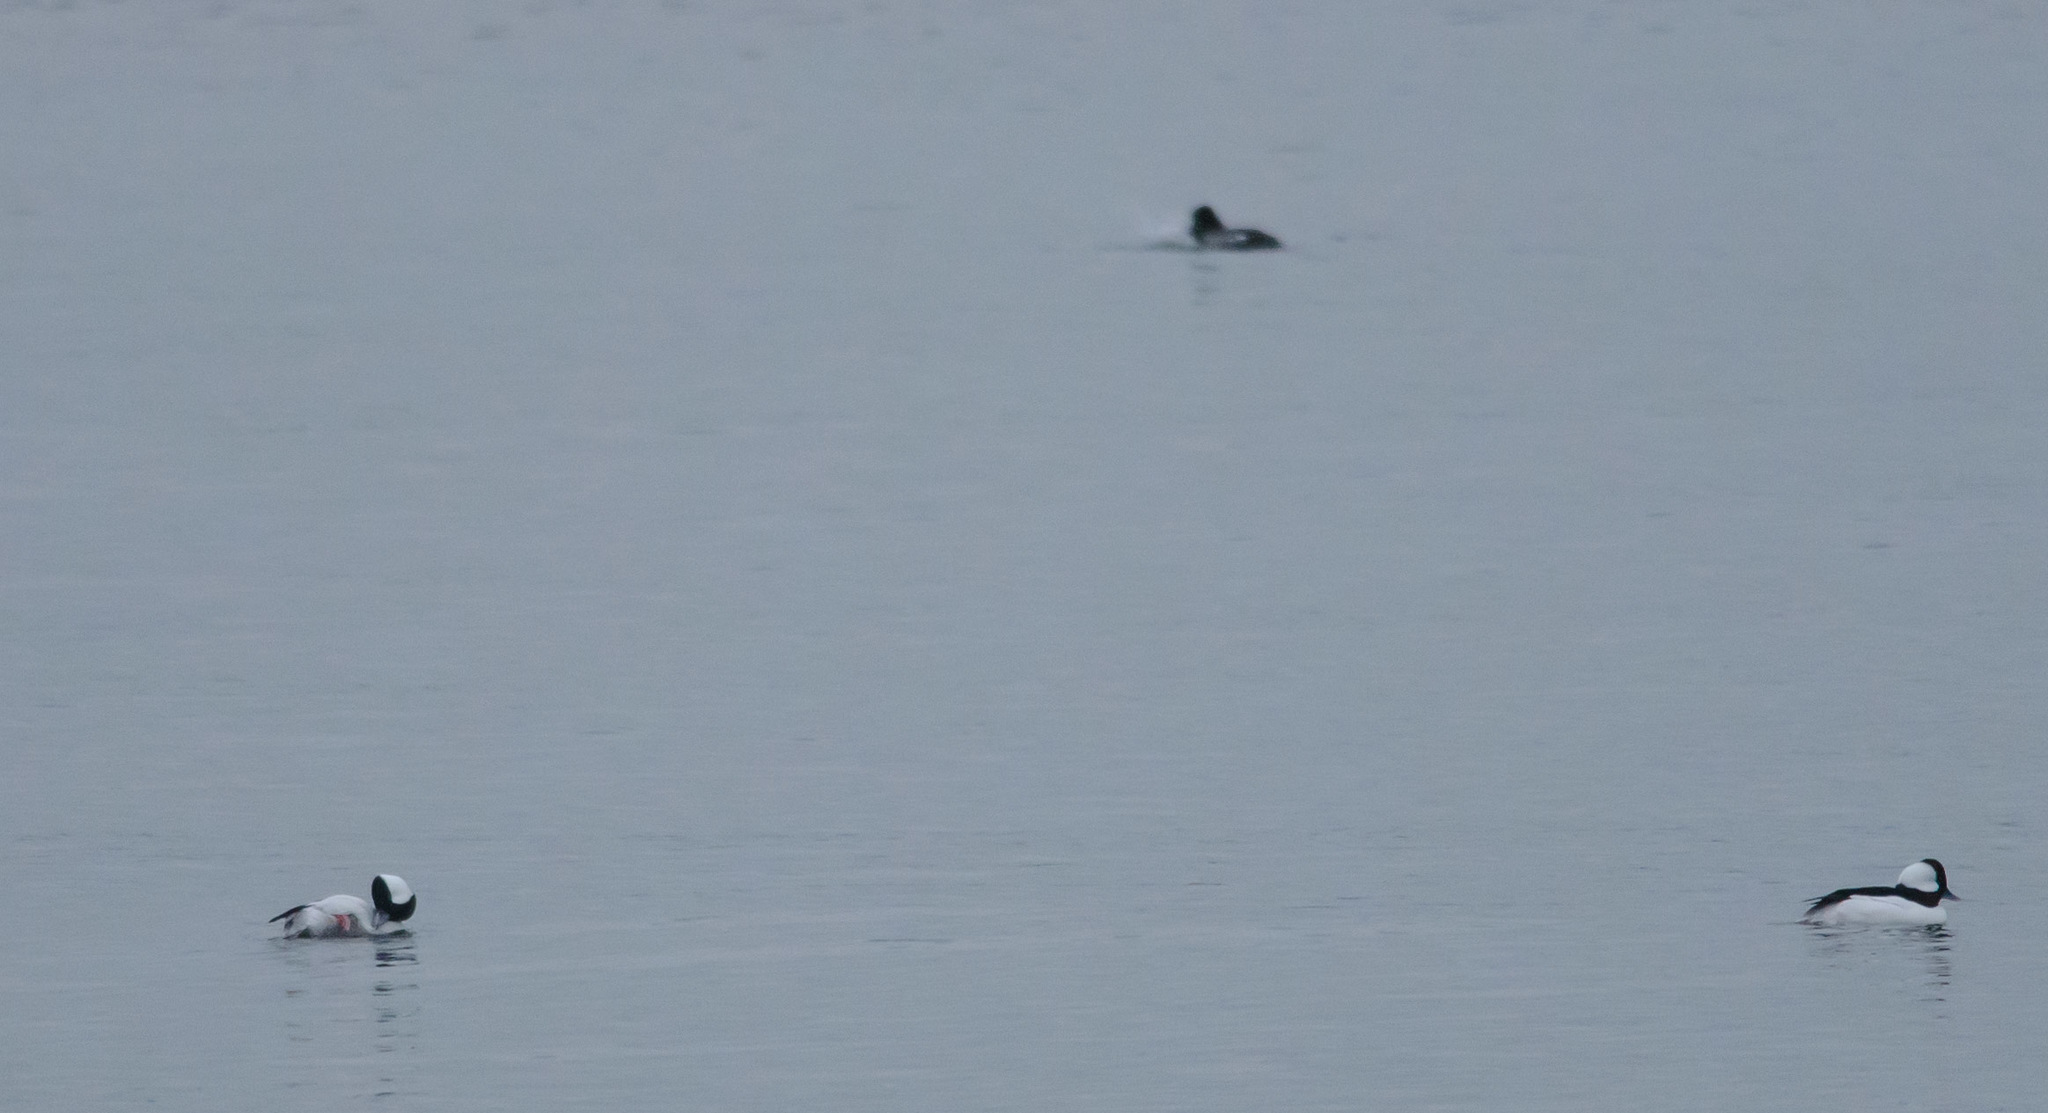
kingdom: Animalia
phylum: Chordata
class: Aves
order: Anseriformes
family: Anatidae
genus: Bucephala
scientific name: Bucephala albeola
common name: Bufflehead
